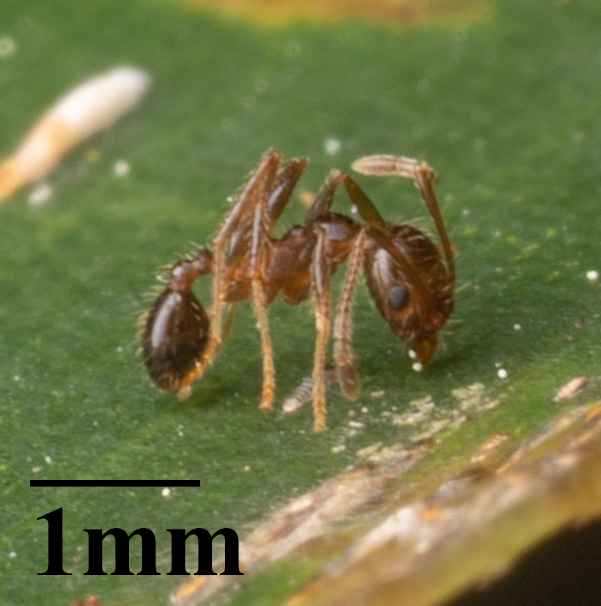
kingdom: Animalia
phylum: Arthropoda
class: Insecta
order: Hymenoptera
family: Formicidae
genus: Pheidole
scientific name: Pheidole dentata
